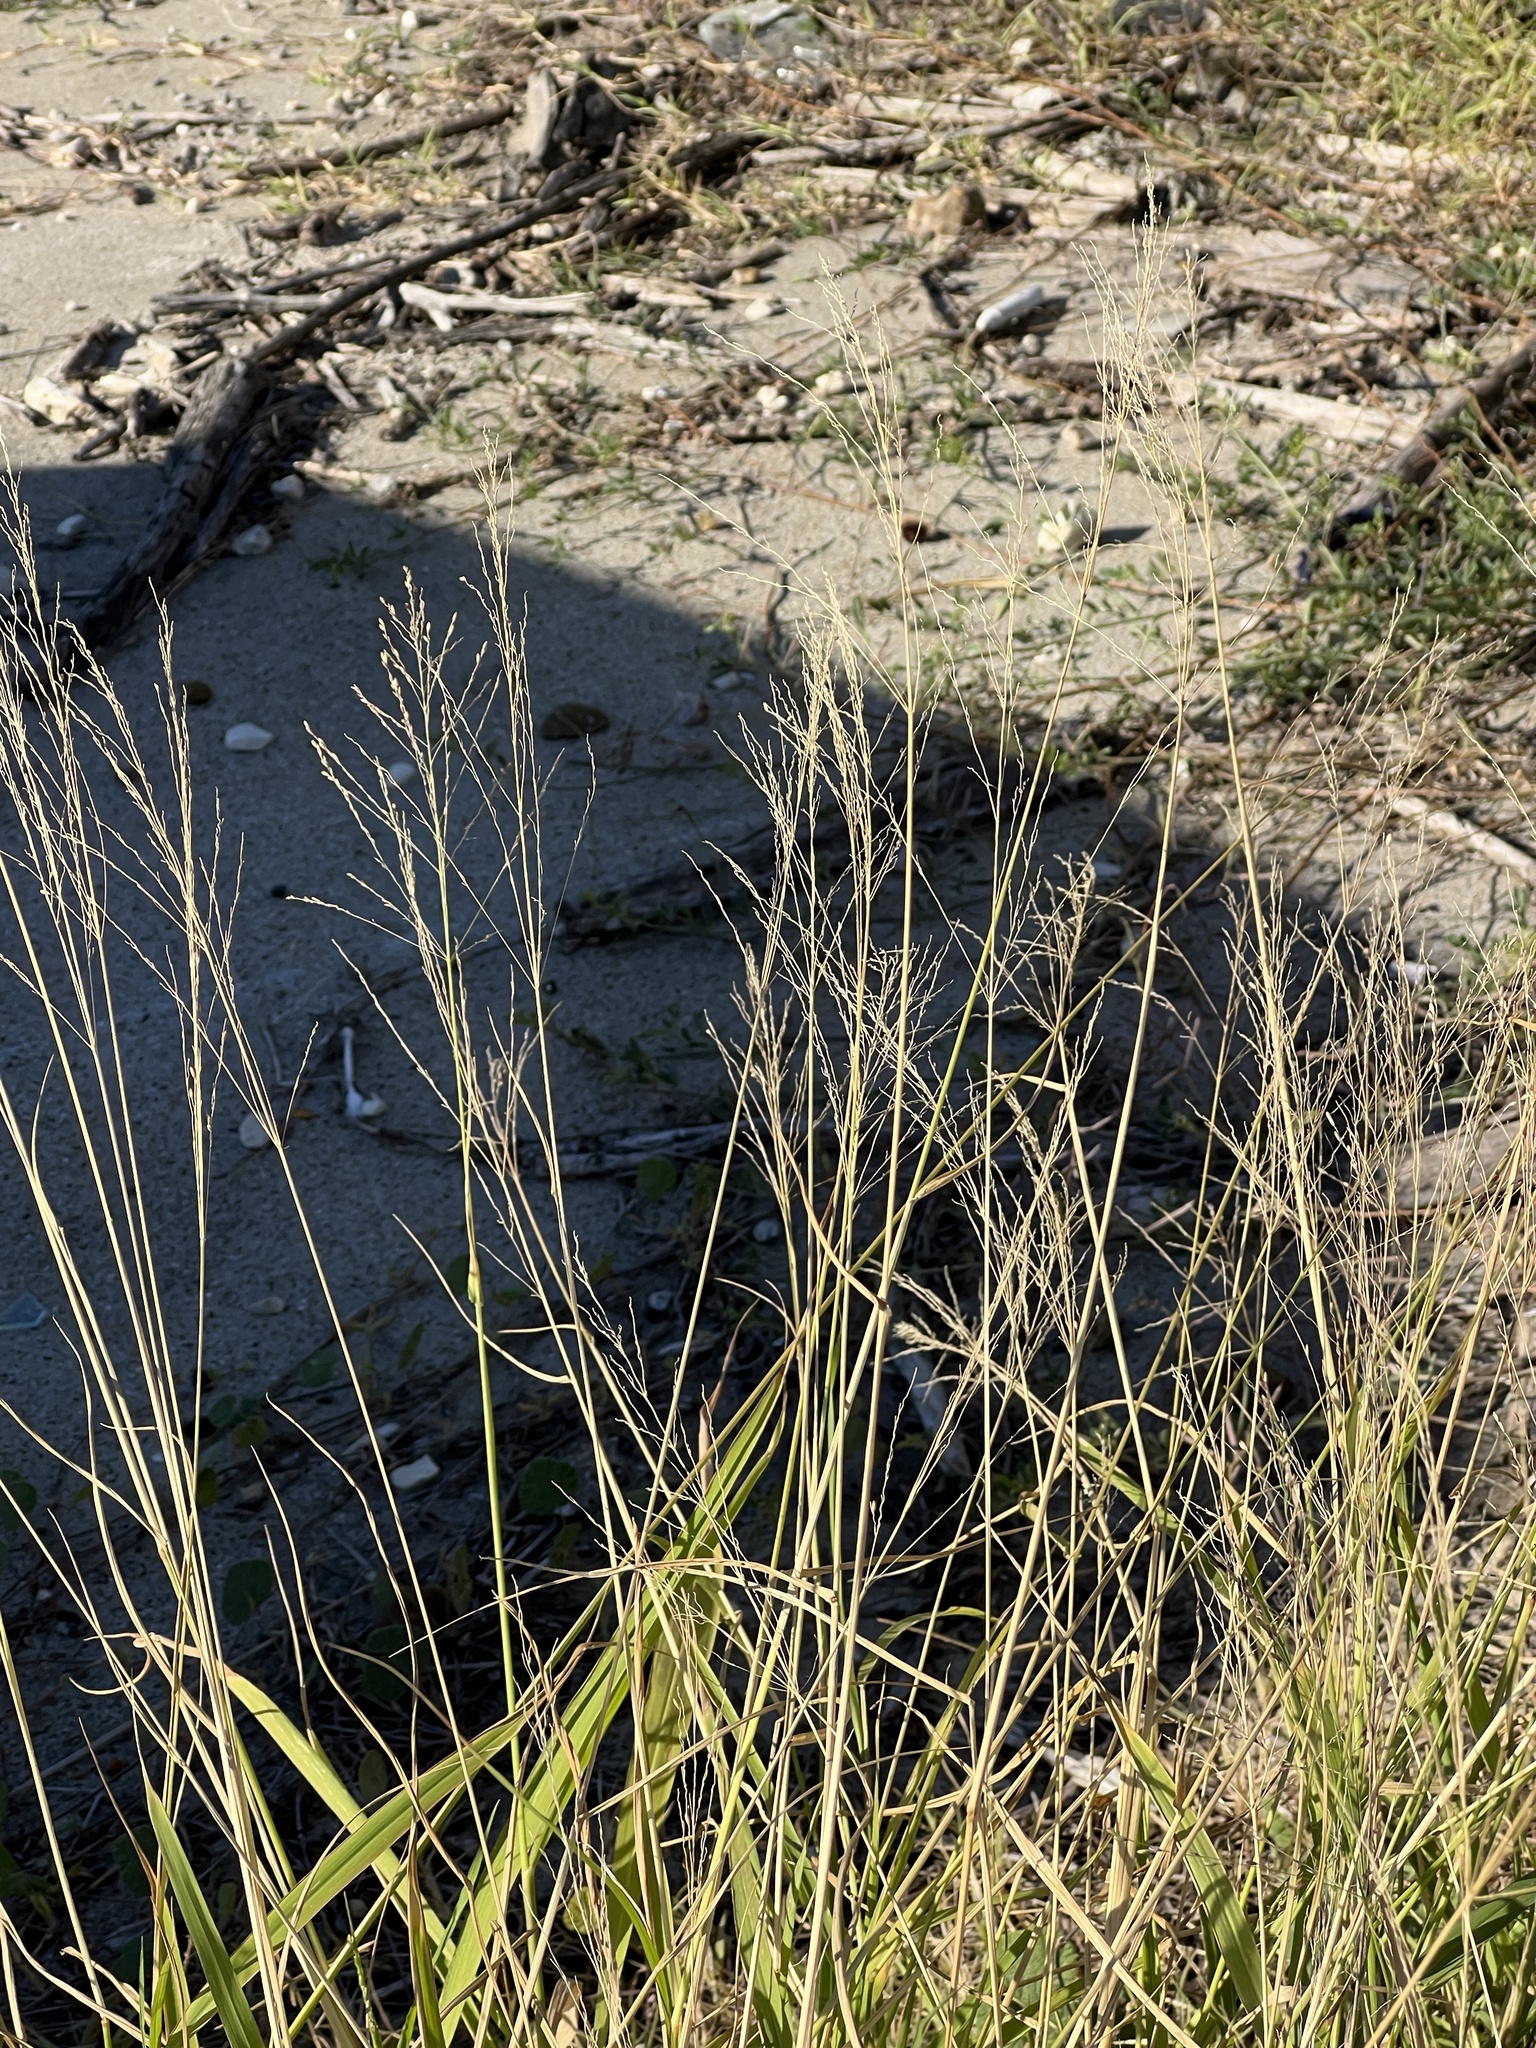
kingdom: Plantae
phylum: Tracheophyta
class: Liliopsida
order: Poales
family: Poaceae
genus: Megathyrsus
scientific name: Megathyrsus maximus
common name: Guineagrass
